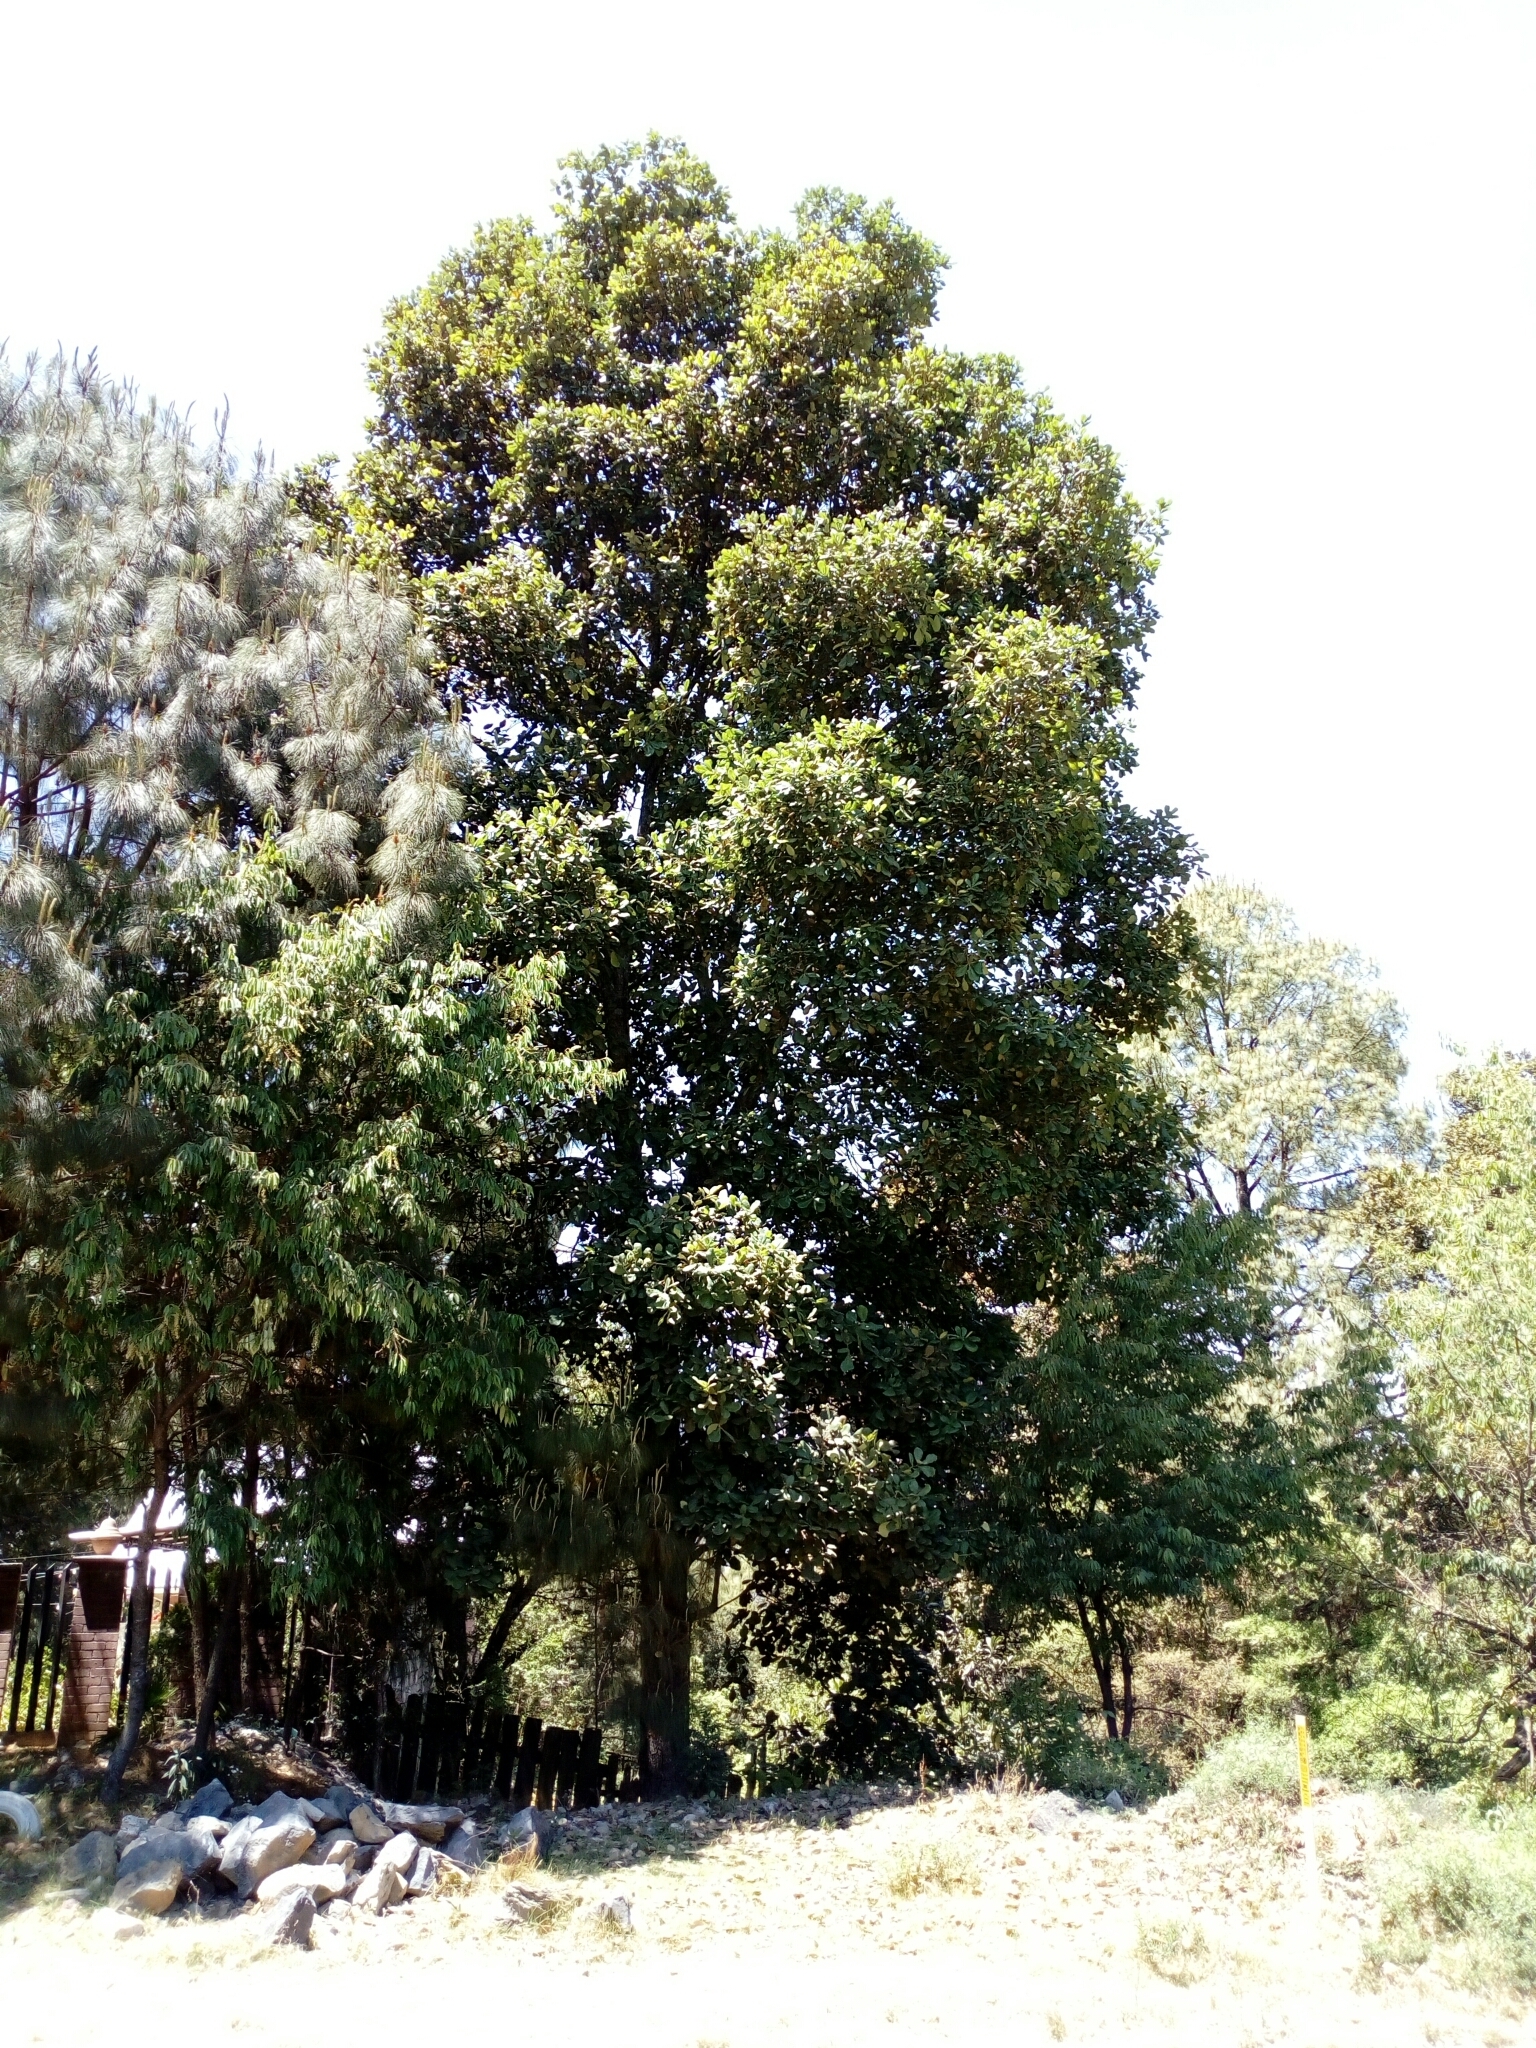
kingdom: Plantae
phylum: Tracheophyta
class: Magnoliopsida
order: Fagales
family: Fagaceae
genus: Quercus
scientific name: Quercus obtusata
